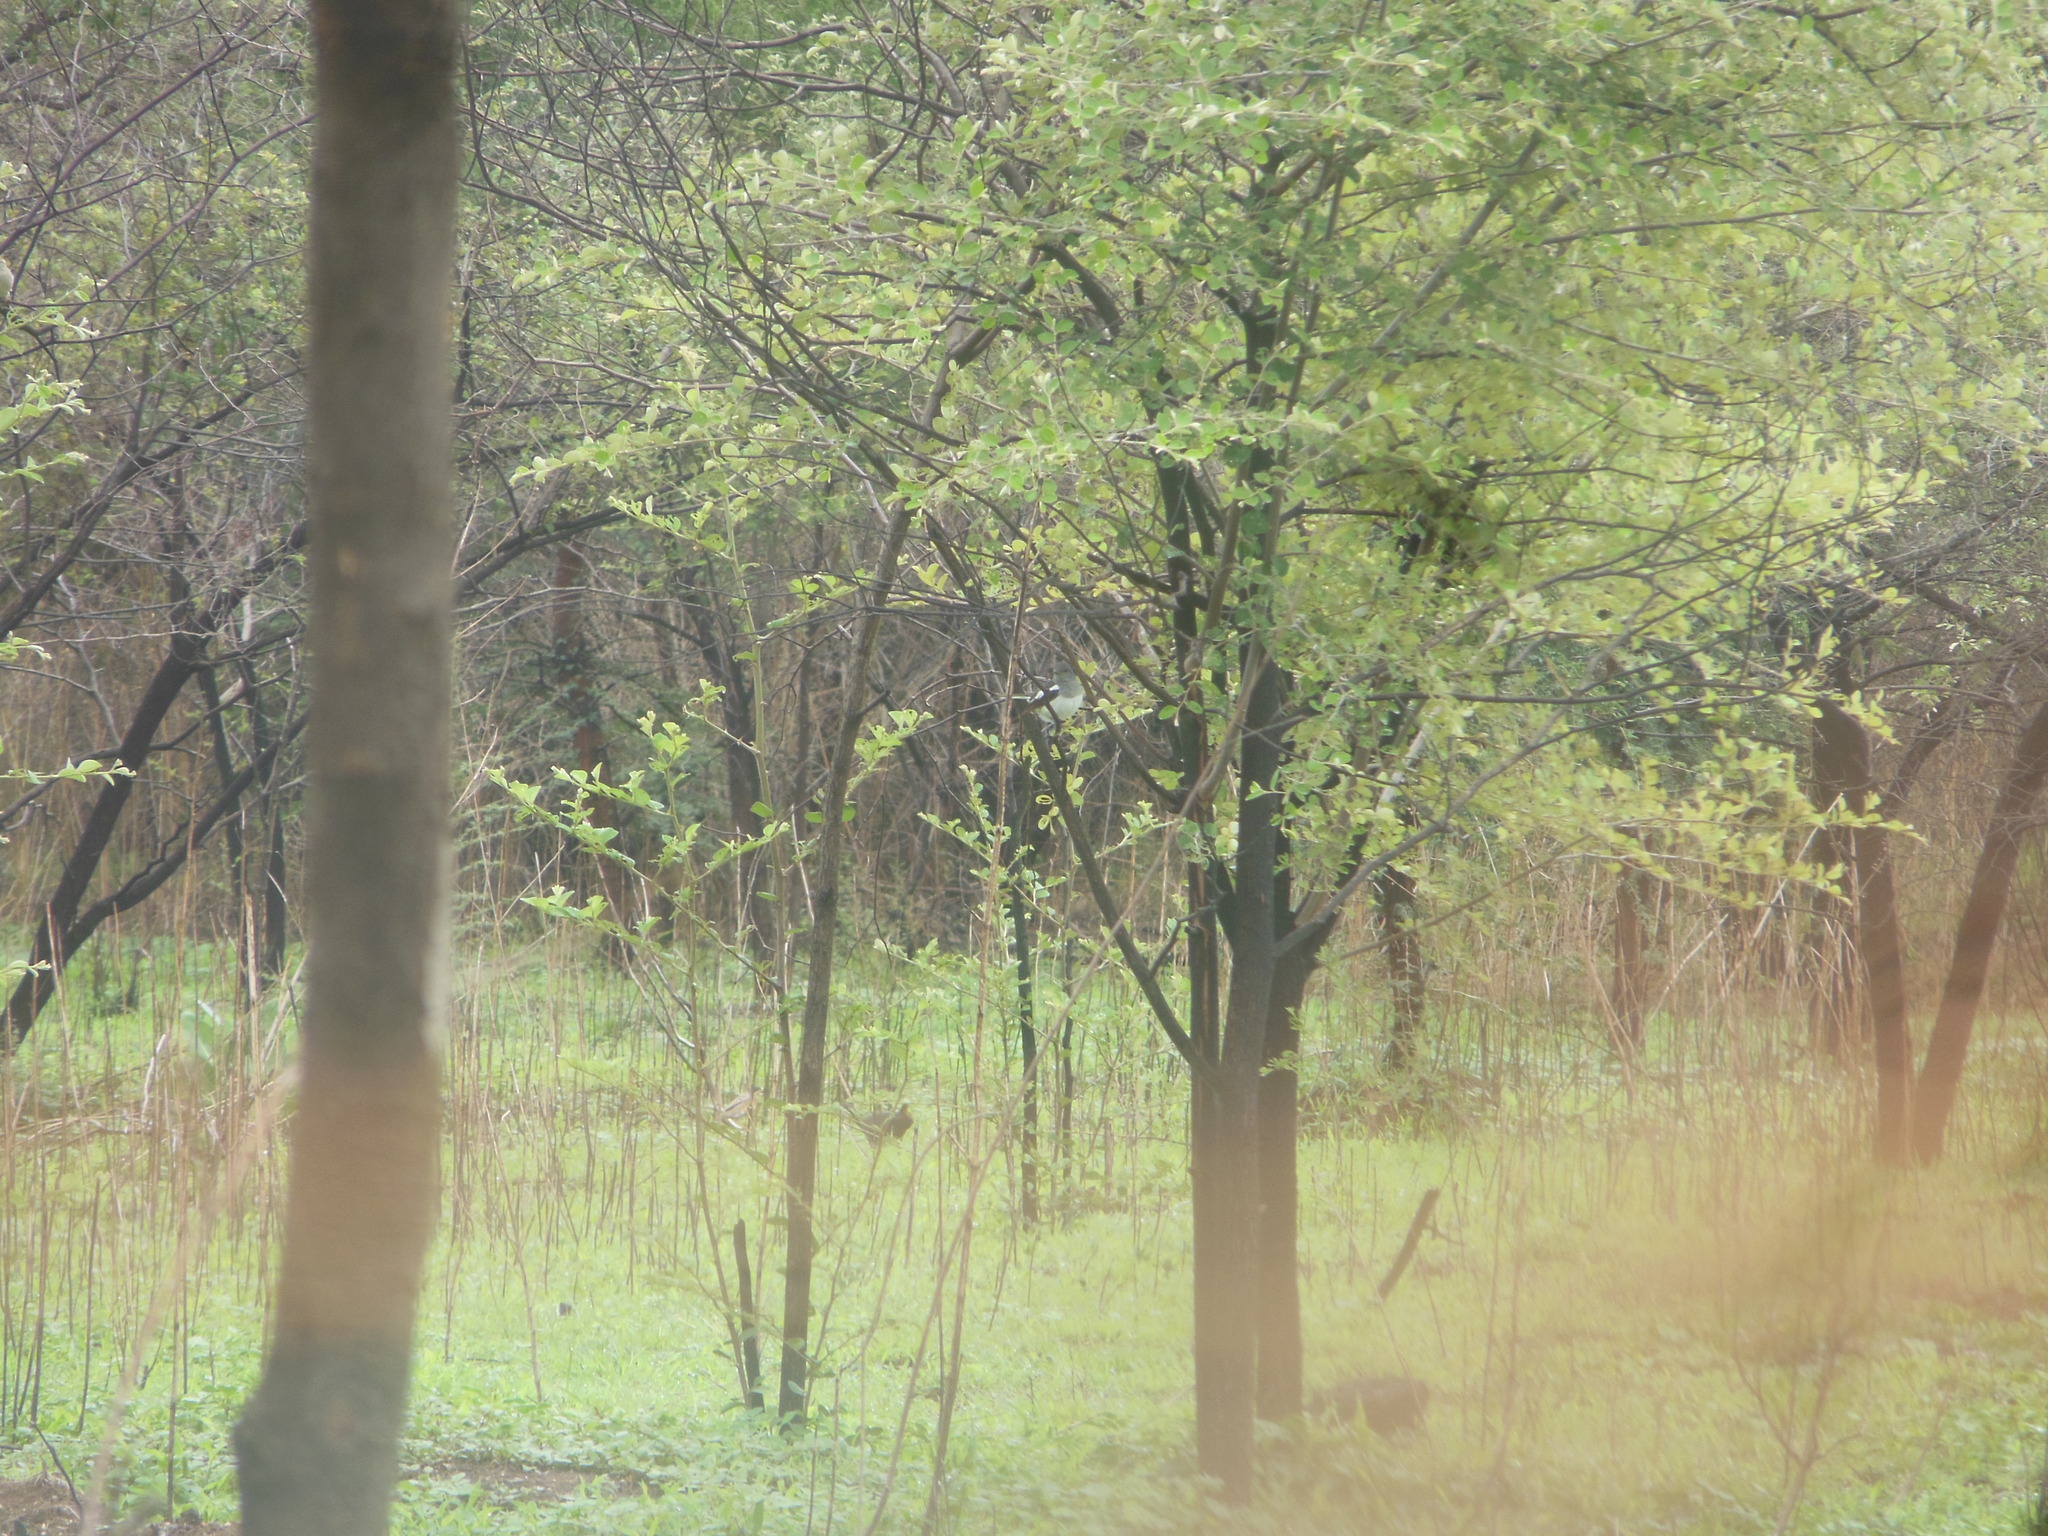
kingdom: Animalia
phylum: Chordata
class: Aves
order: Passeriformes
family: Muscicapidae
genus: Copsychus
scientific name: Copsychus saularis
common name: Oriental magpie-robin
